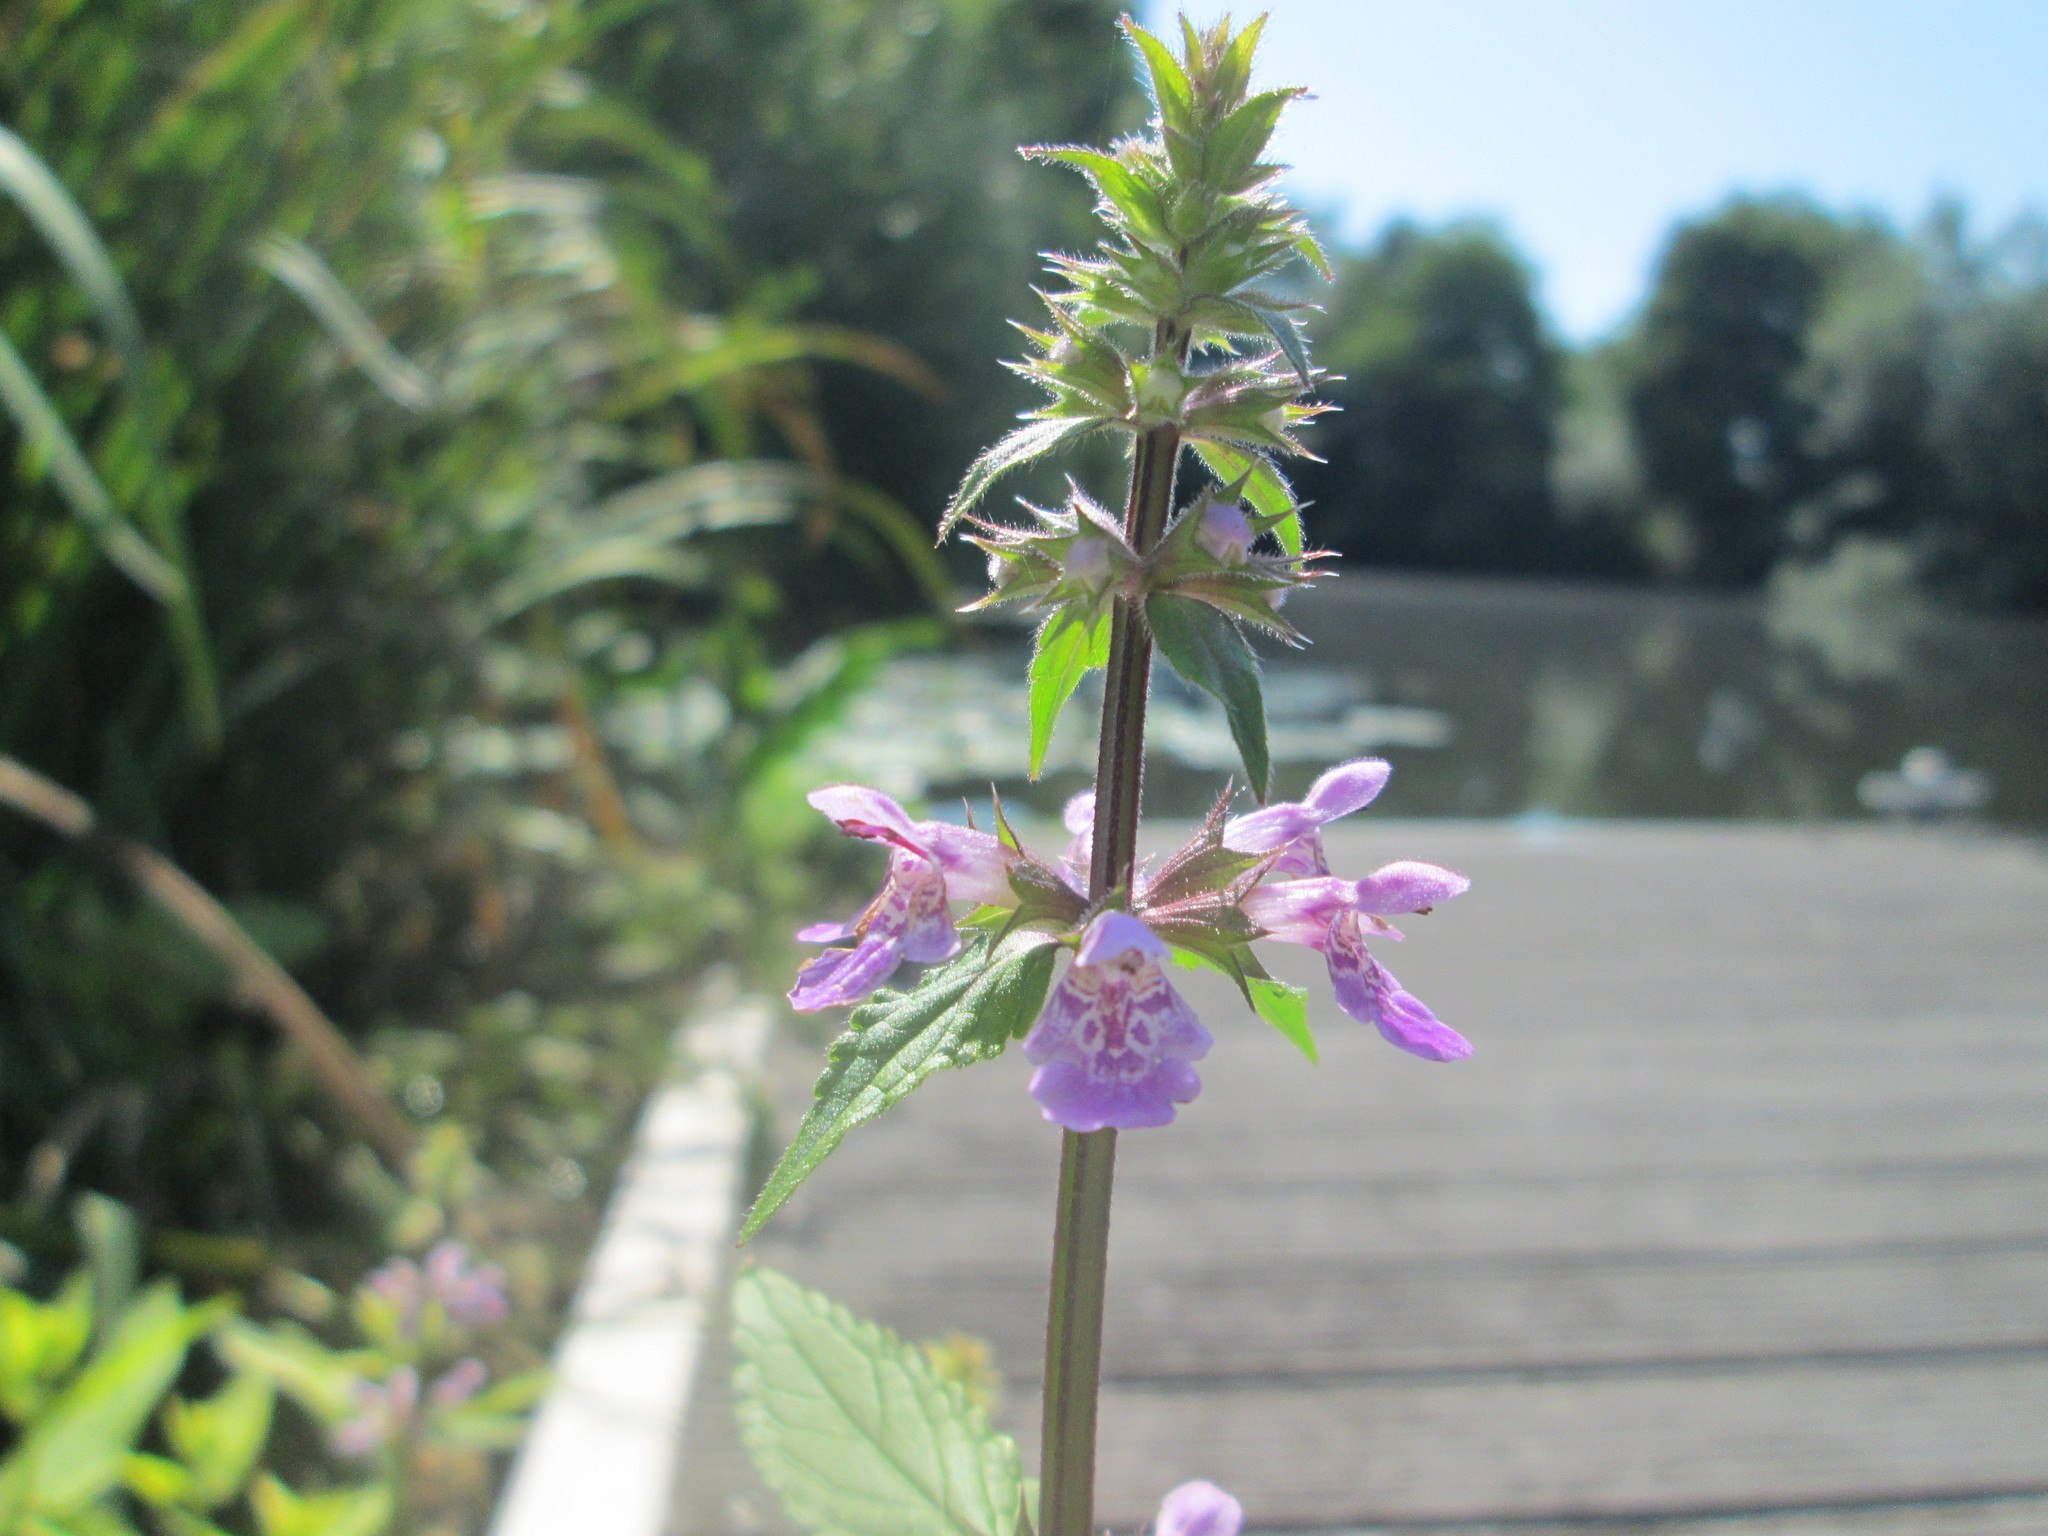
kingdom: Plantae
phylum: Tracheophyta
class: Magnoliopsida
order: Lamiales
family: Lamiaceae
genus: Stachys
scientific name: Stachys palustris
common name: Marsh woundwort
